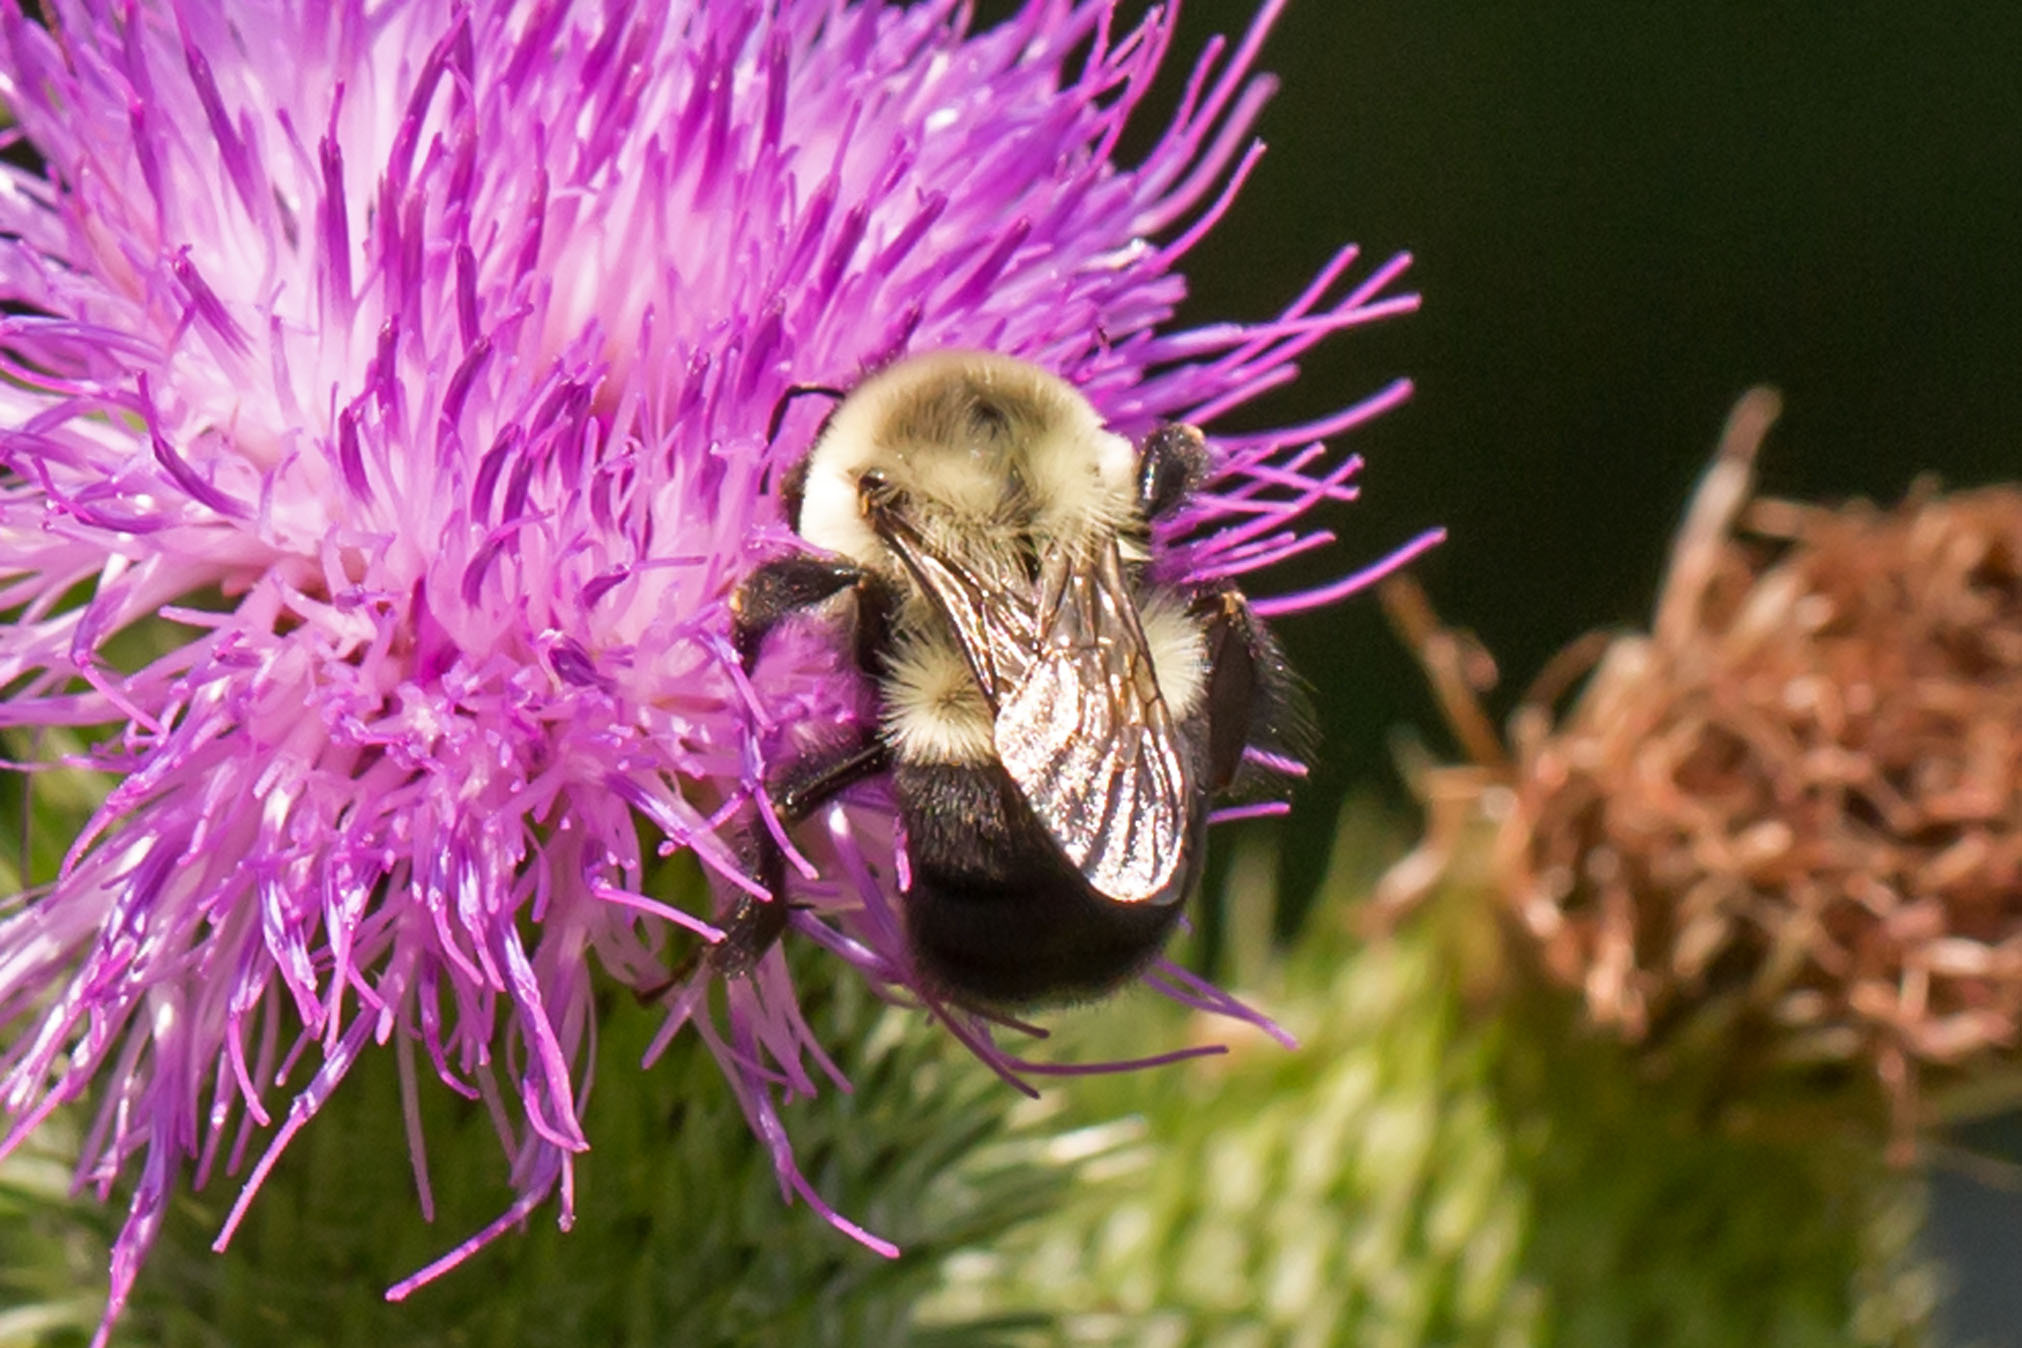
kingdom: Animalia
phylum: Arthropoda
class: Insecta
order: Hymenoptera
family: Apidae
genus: Bombus
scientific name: Bombus impatiens
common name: Common eastern bumble bee
